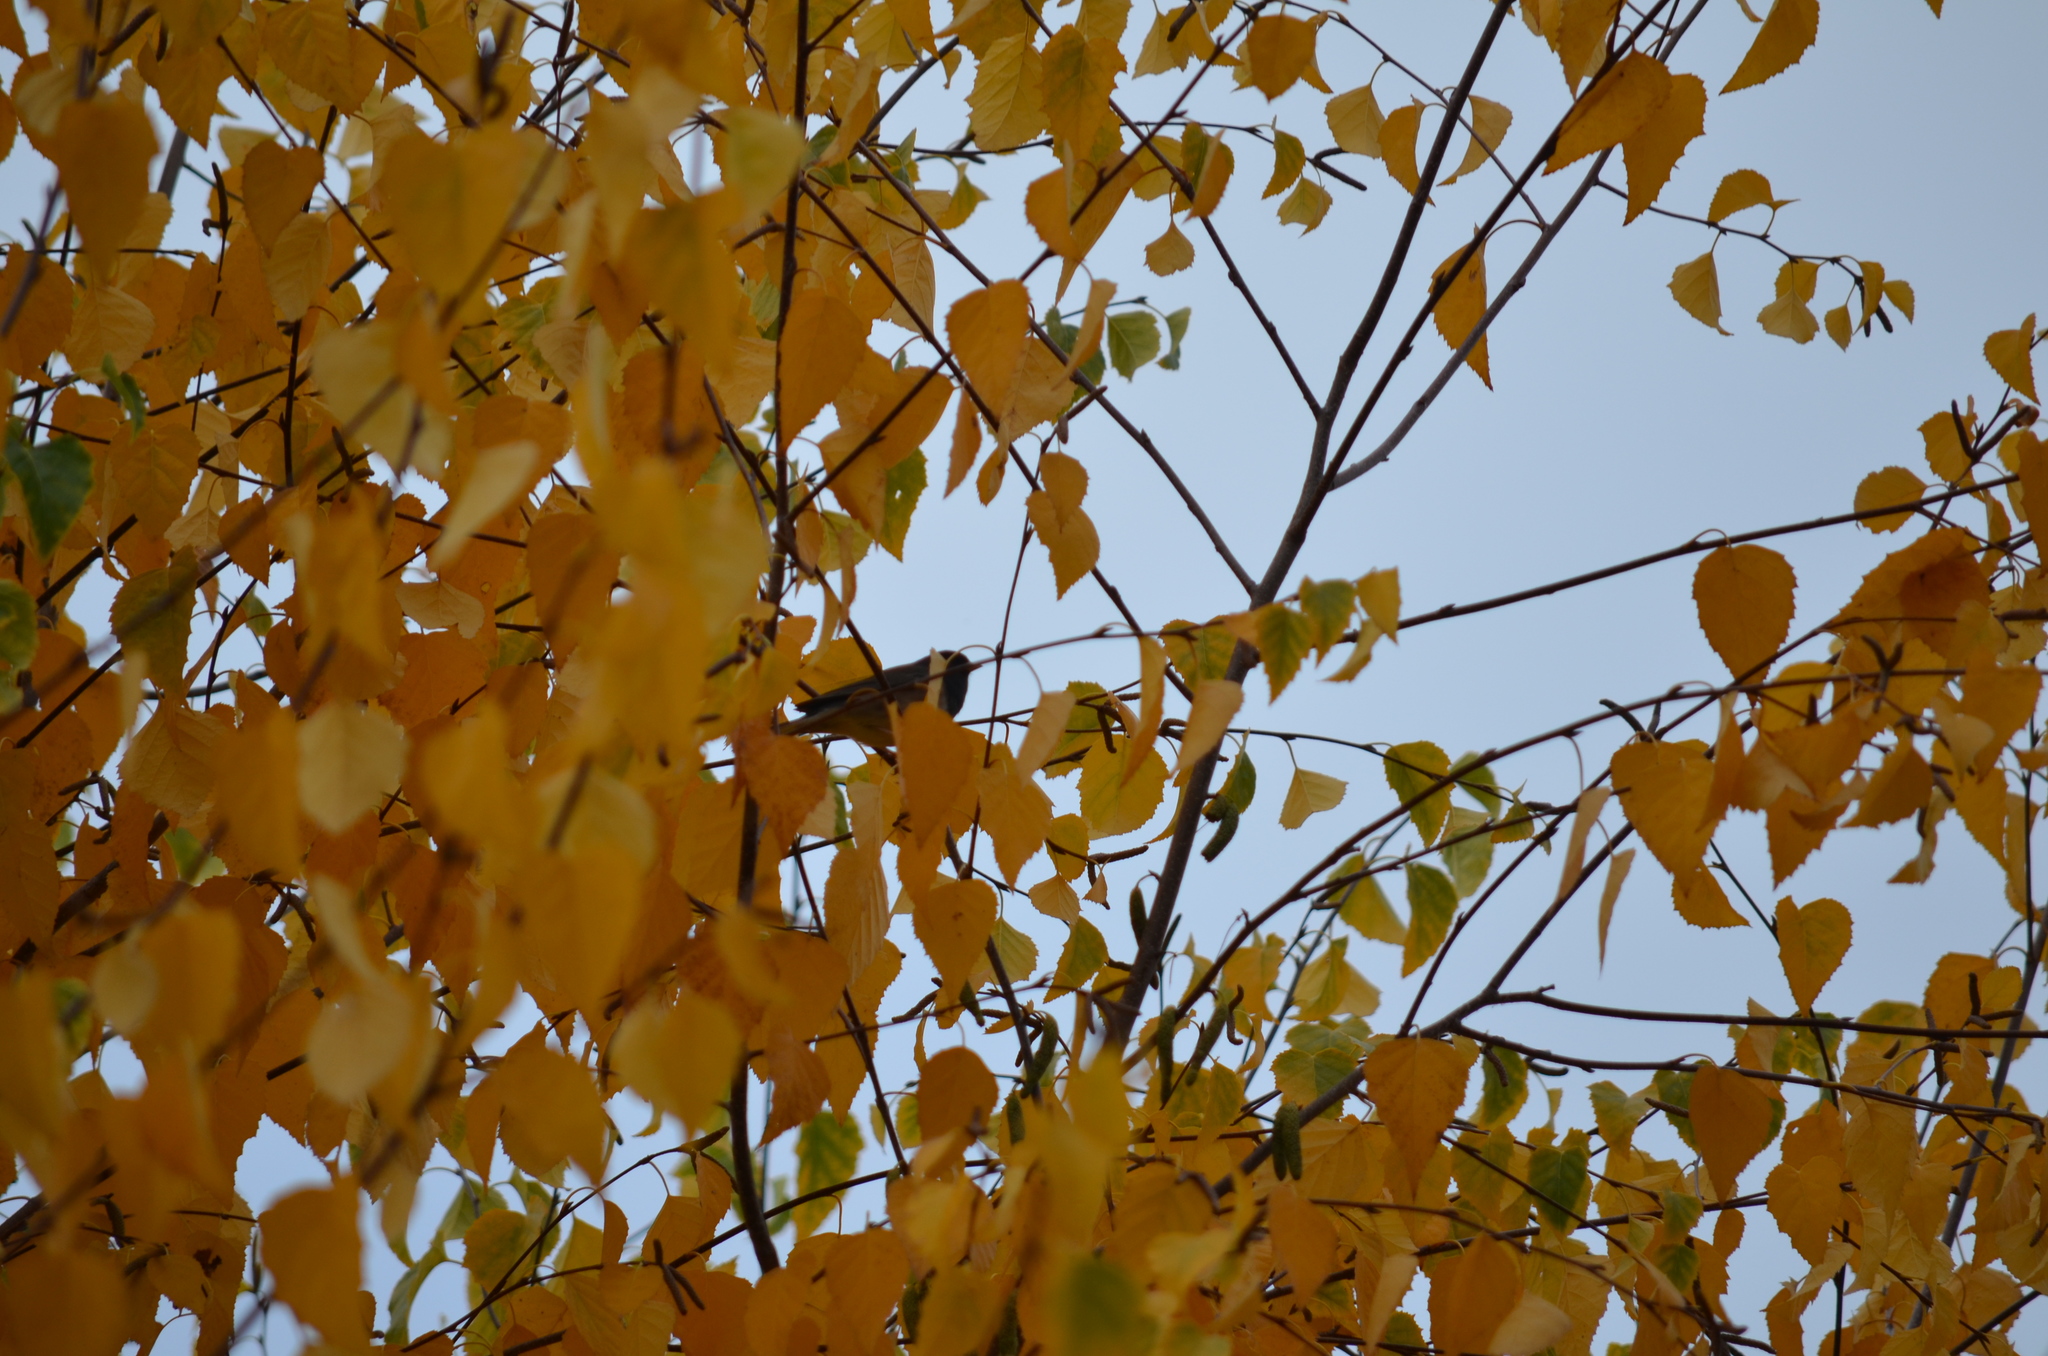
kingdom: Animalia
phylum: Chordata
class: Aves
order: Passeriformes
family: Passerellidae
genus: Junco
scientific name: Junco hyemalis
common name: Dark-eyed junco
